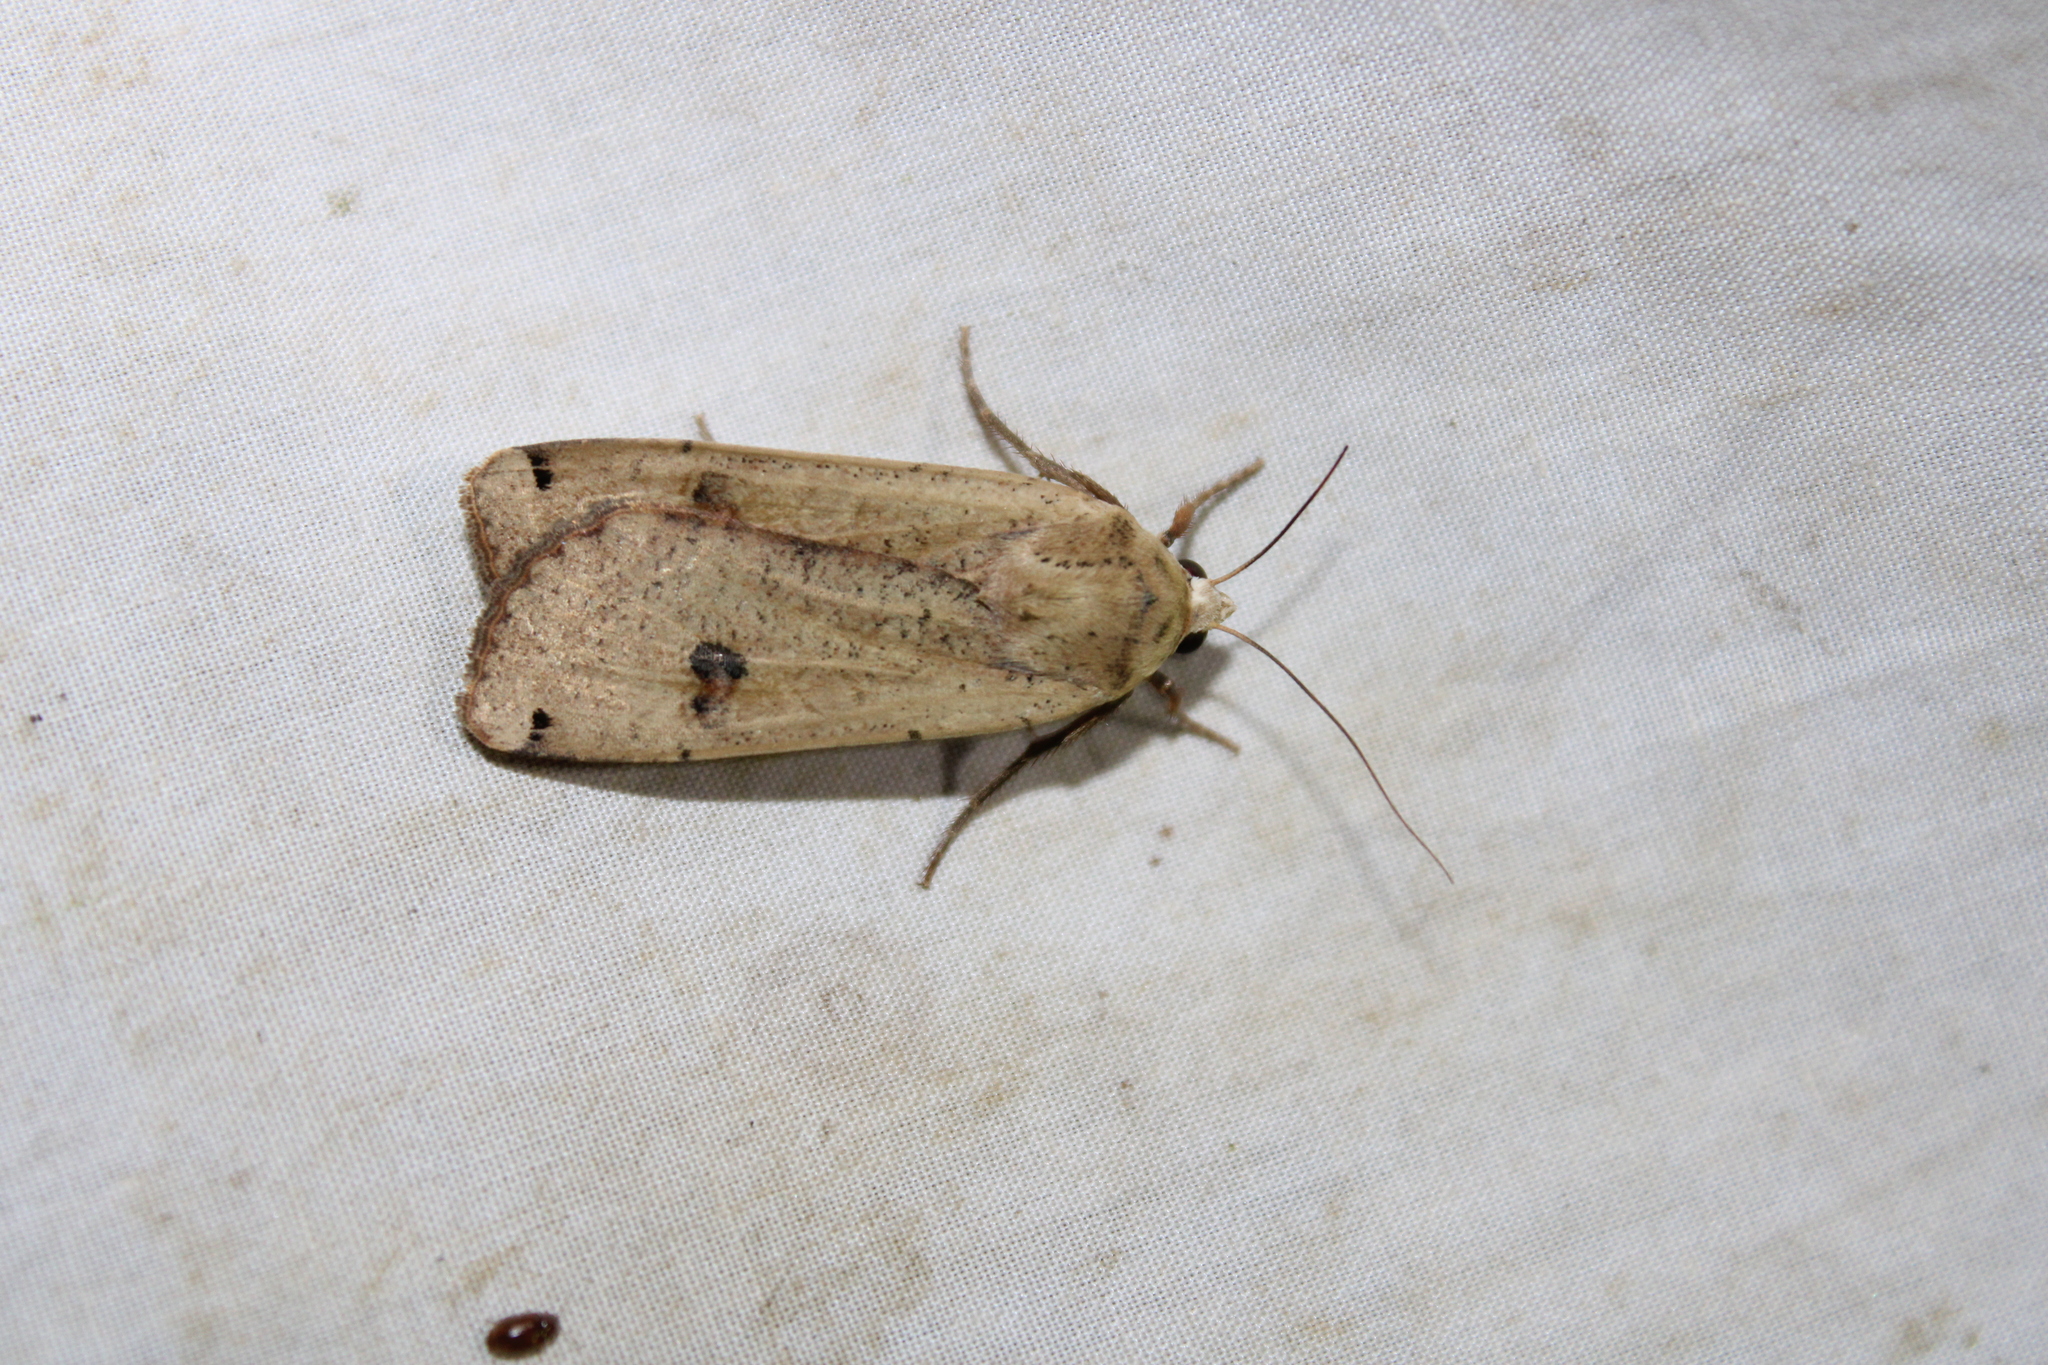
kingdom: Animalia
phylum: Arthropoda
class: Insecta
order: Lepidoptera
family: Noctuidae
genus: Noctua
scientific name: Noctua pronuba
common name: Large yellow underwing
